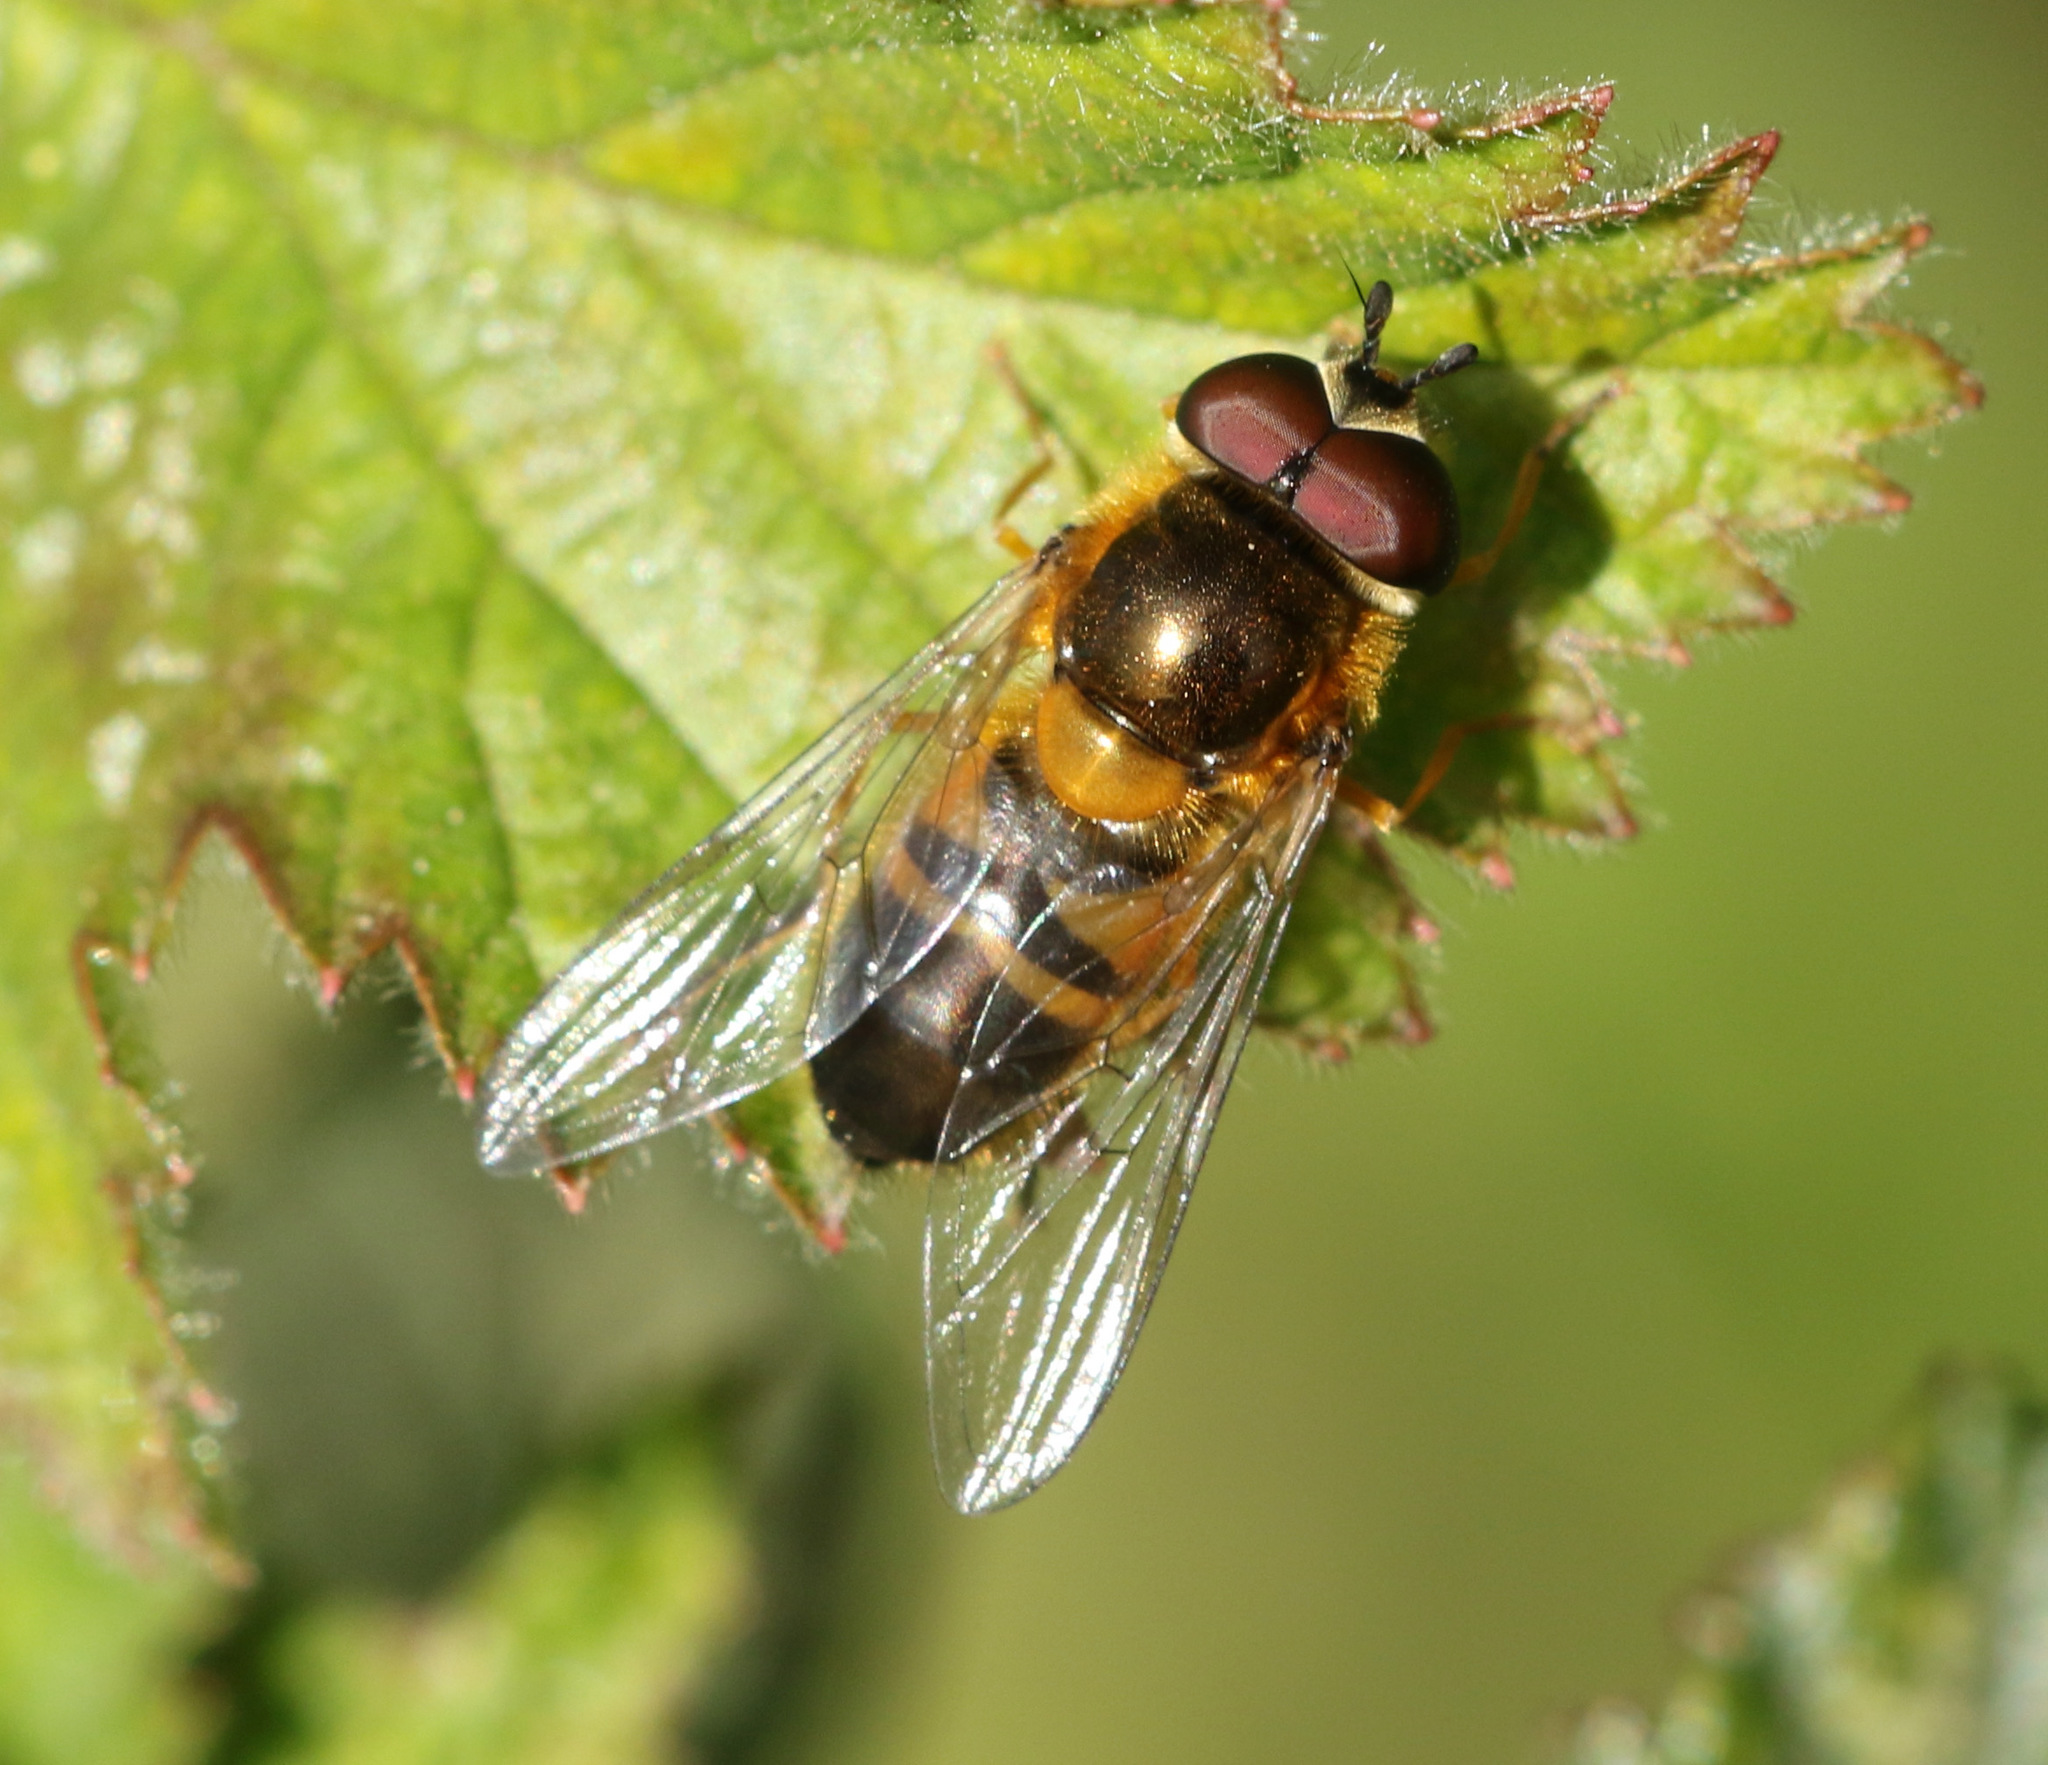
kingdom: Animalia
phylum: Arthropoda
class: Insecta
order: Diptera
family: Syrphidae
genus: Epistrophe
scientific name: Epistrophe eligans
